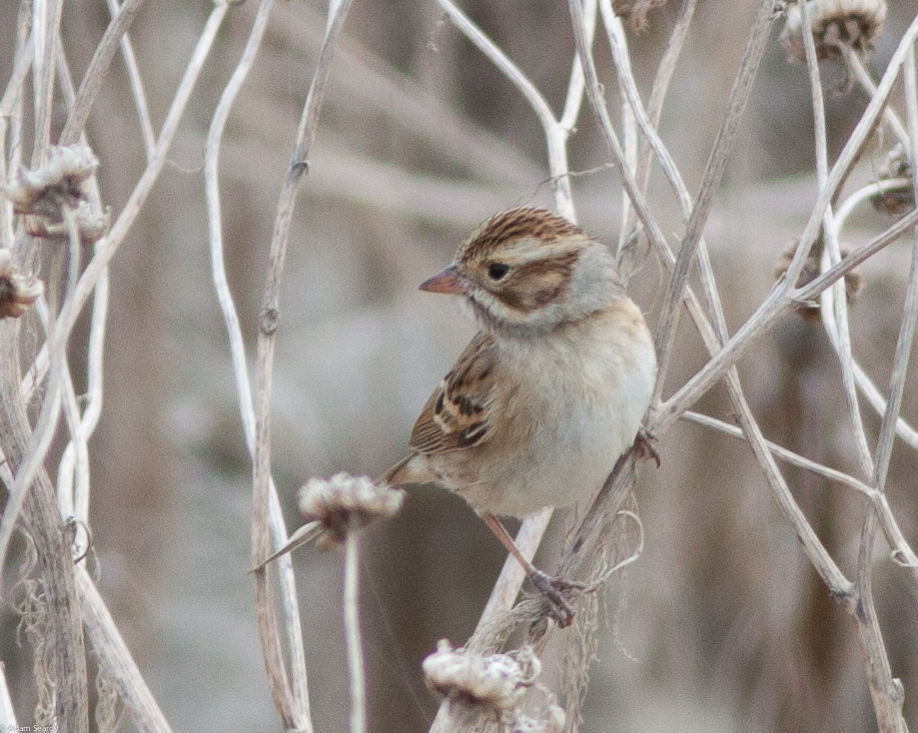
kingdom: Animalia
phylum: Chordata
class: Aves
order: Passeriformes
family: Passerellidae
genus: Spizella
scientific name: Spizella pallida
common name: Clay-colored sparrow
